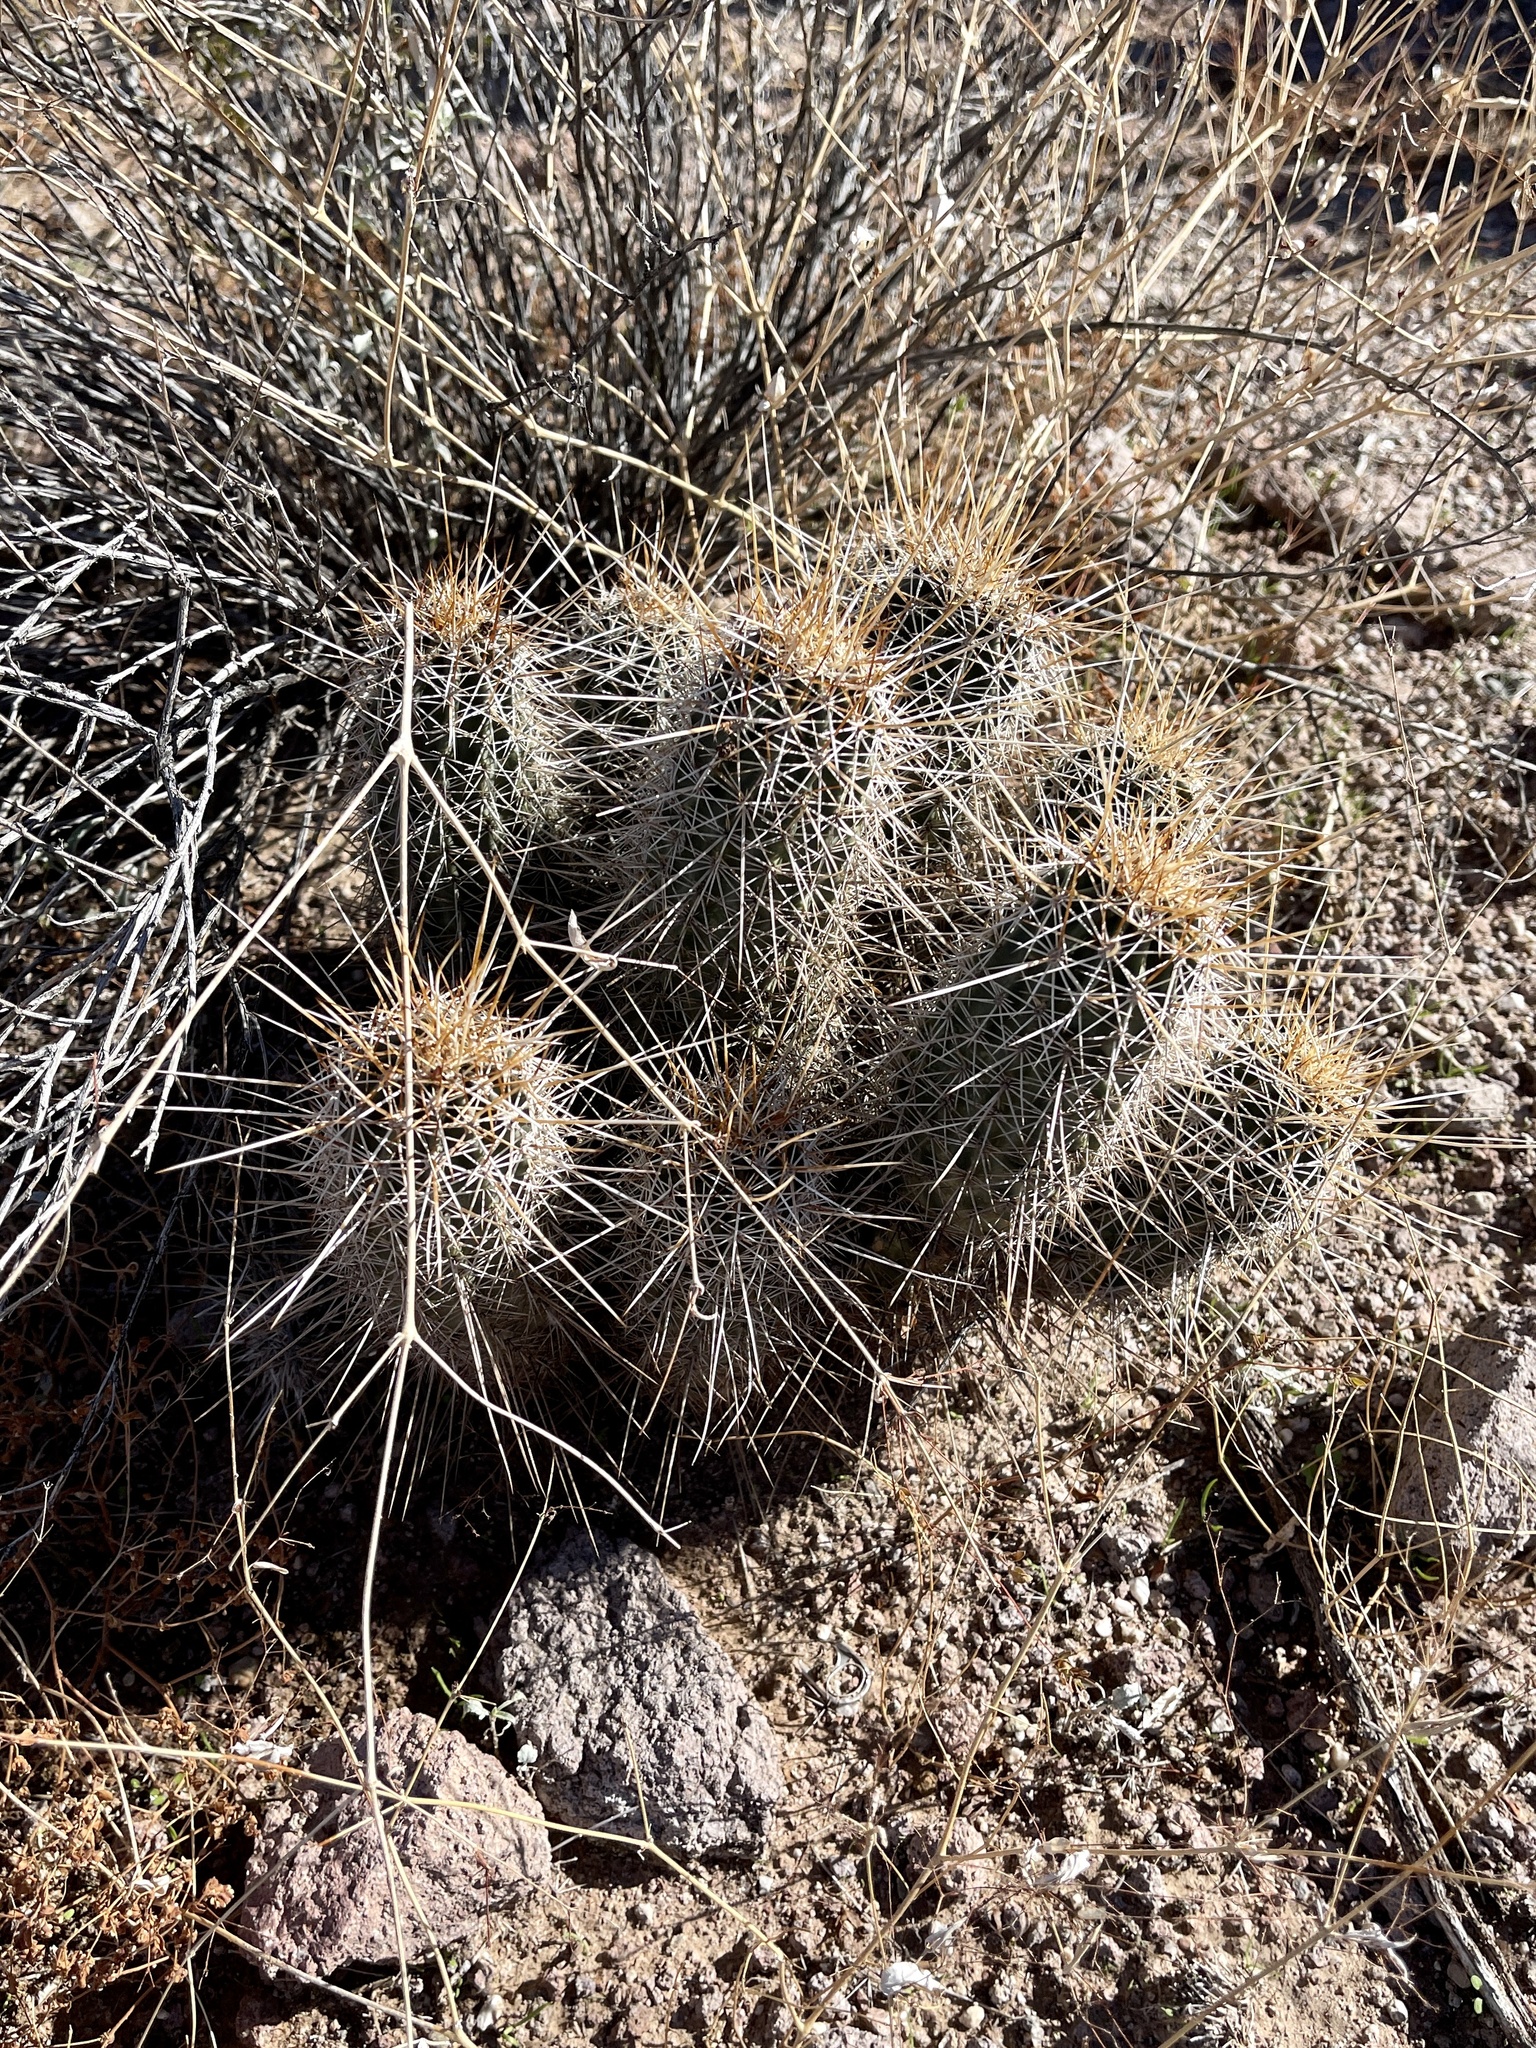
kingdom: Plantae
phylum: Tracheophyta
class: Magnoliopsida
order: Caryophyllales
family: Cactaceae
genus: Echinocereus
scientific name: Echinocereus fasciculatus
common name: Bundle hedgehog
